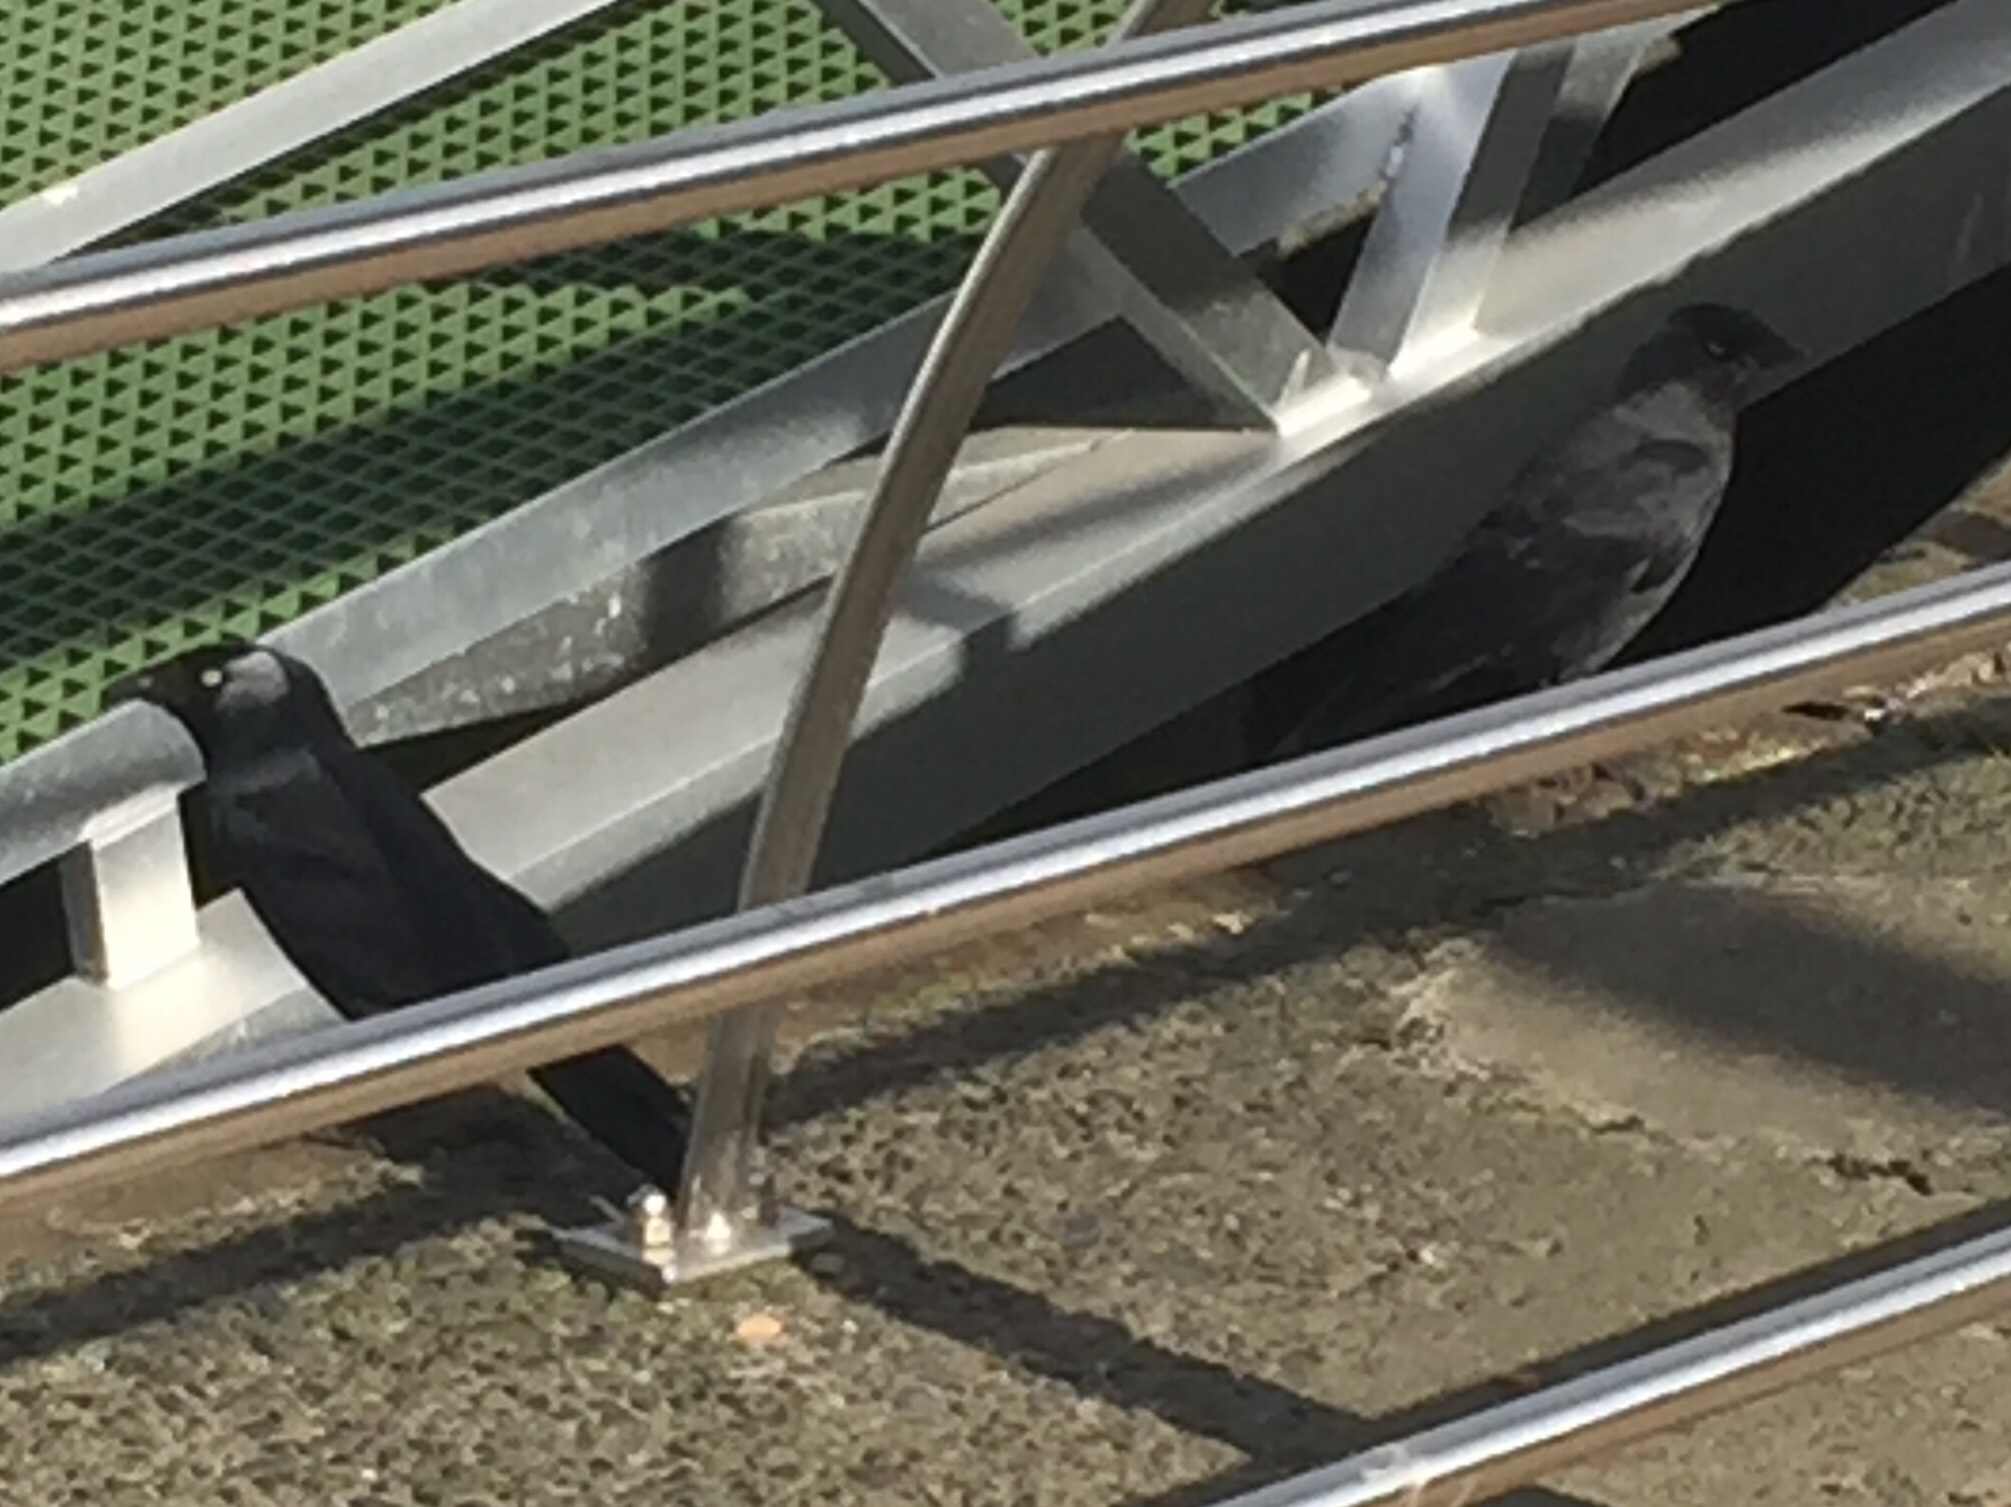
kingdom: Animalia
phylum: Chordata
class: Aves
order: Passeriformes
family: Corvidae
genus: Coloeus
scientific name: Coloeus monedula
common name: Western jackdaw
